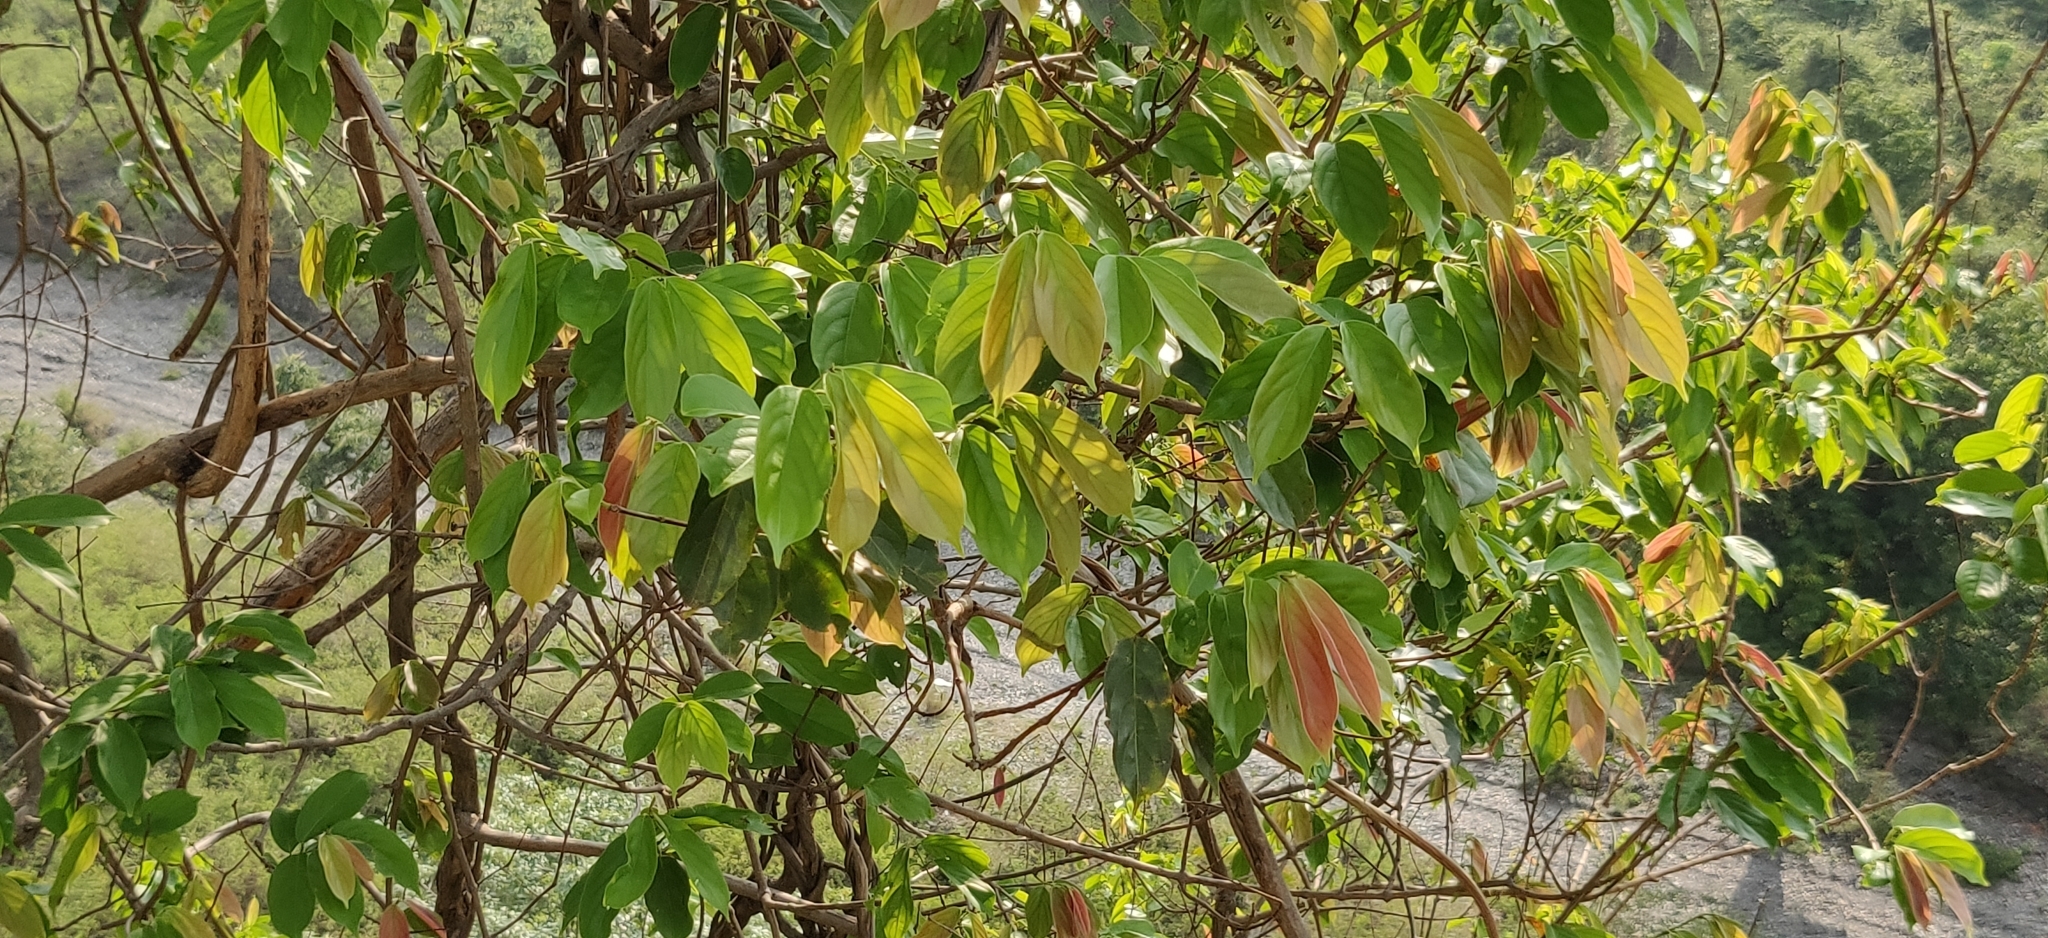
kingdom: Plantae
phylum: Tracheophyta
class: Magnoliopsida
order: Myrtales
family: Combretaceae
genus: Combretum
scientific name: Combretum roxburghii
